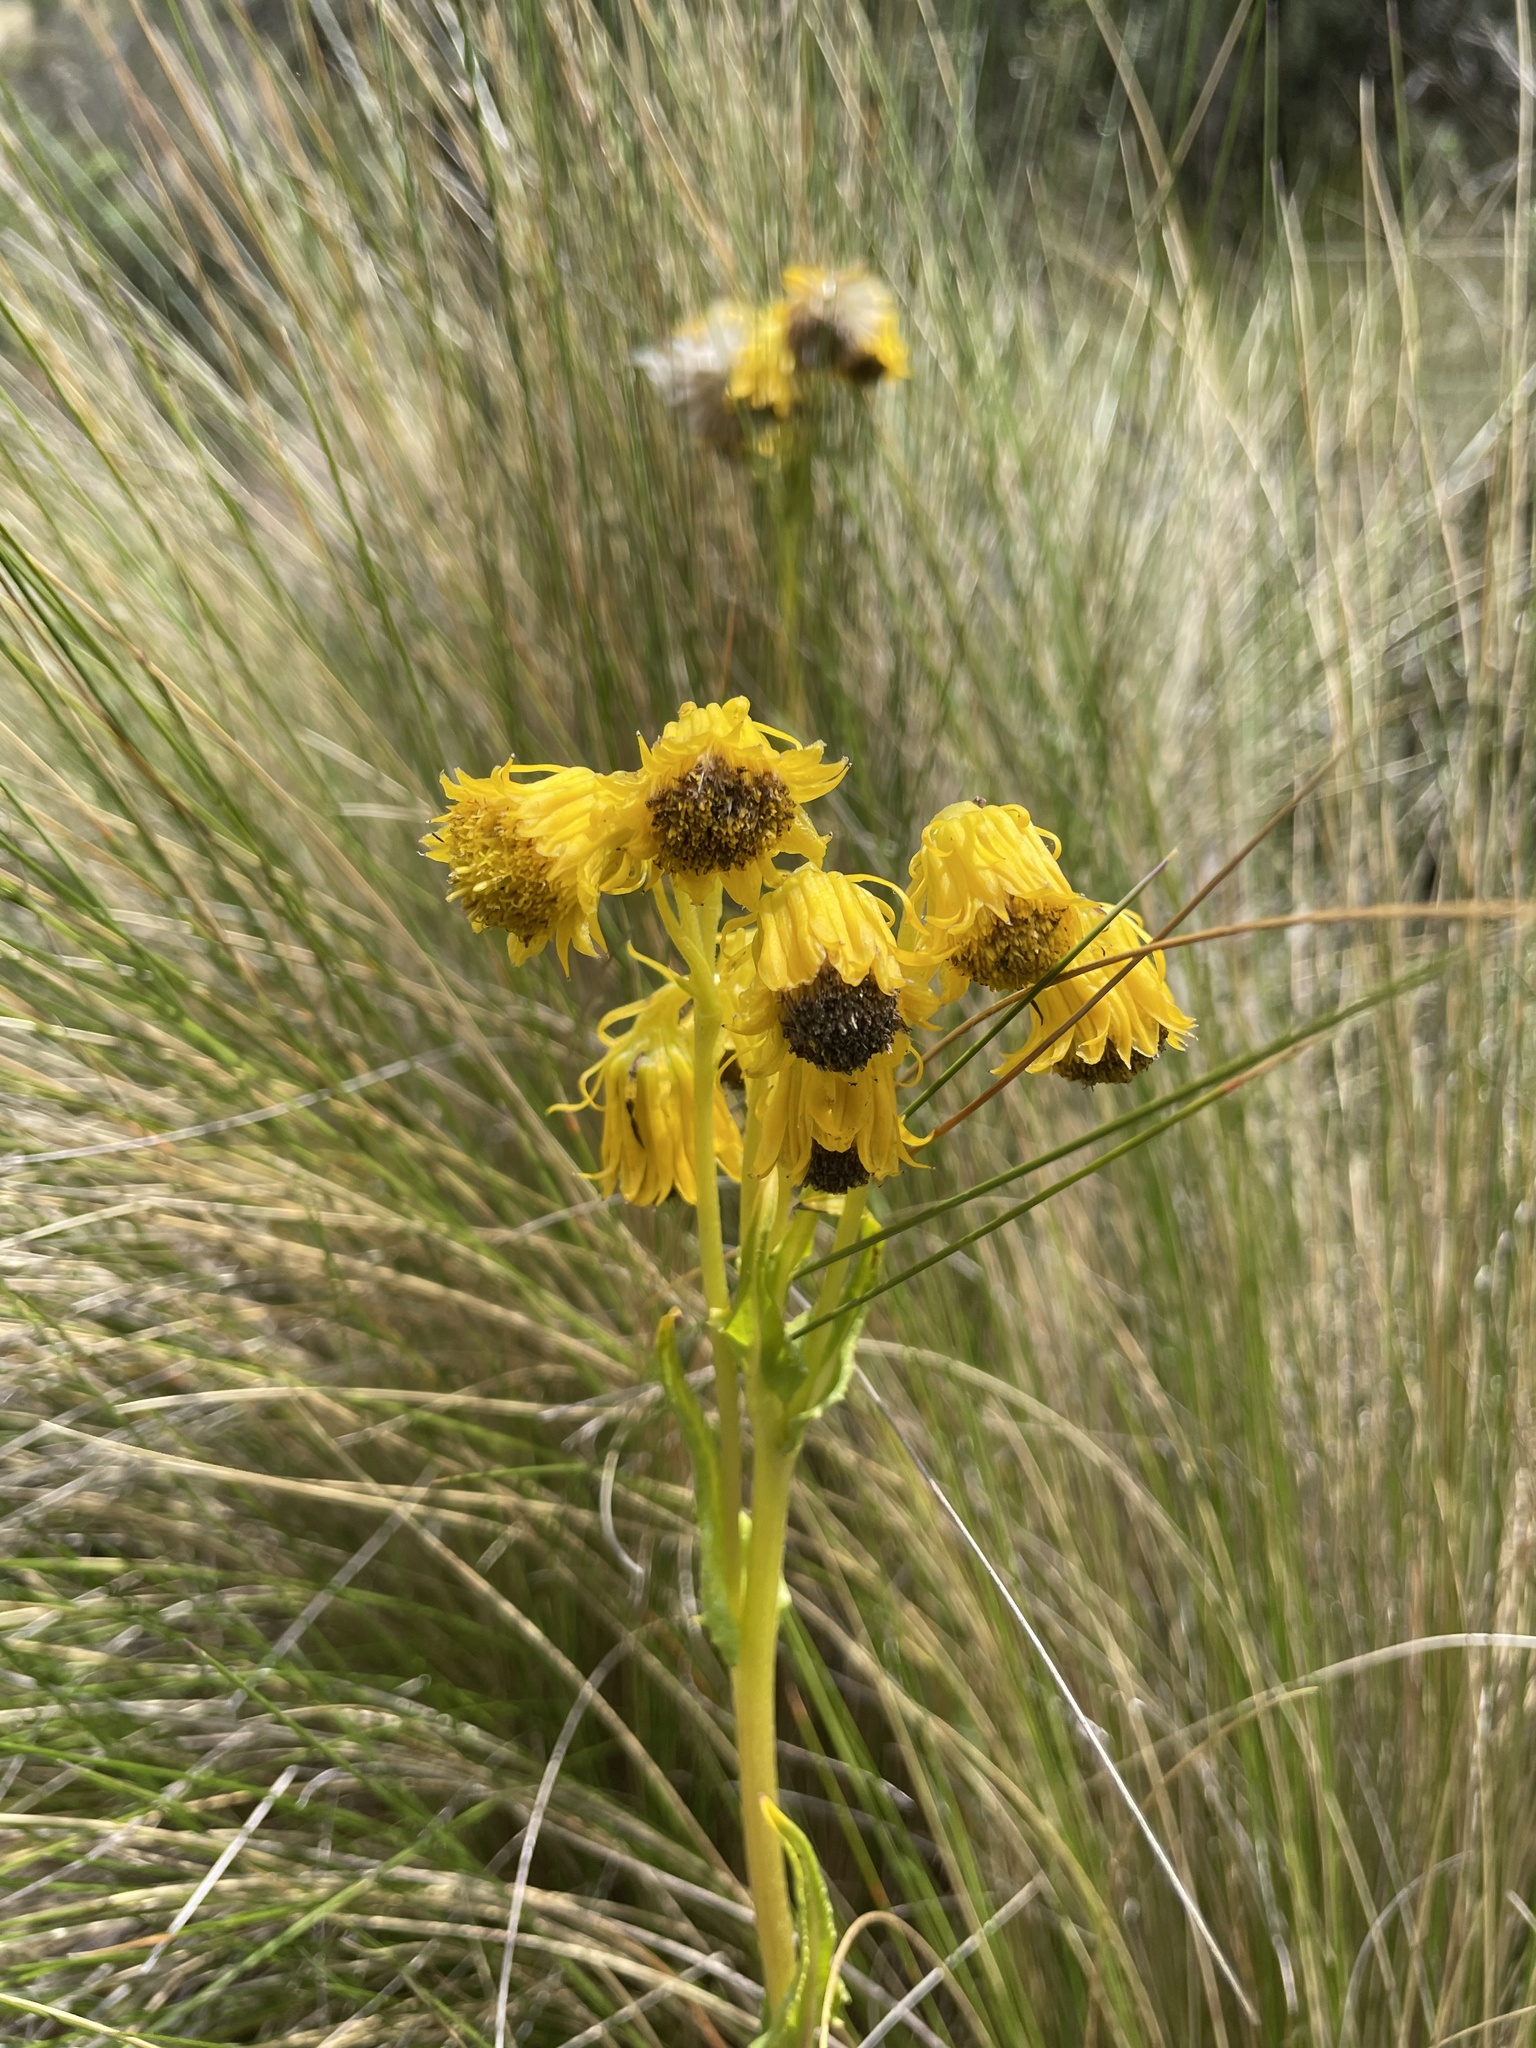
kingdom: Plantae
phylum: Tracheophyta
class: Magnoliopsida
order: Asterales
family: Asteraceae
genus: Senecio
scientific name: Senecio chionogeton
